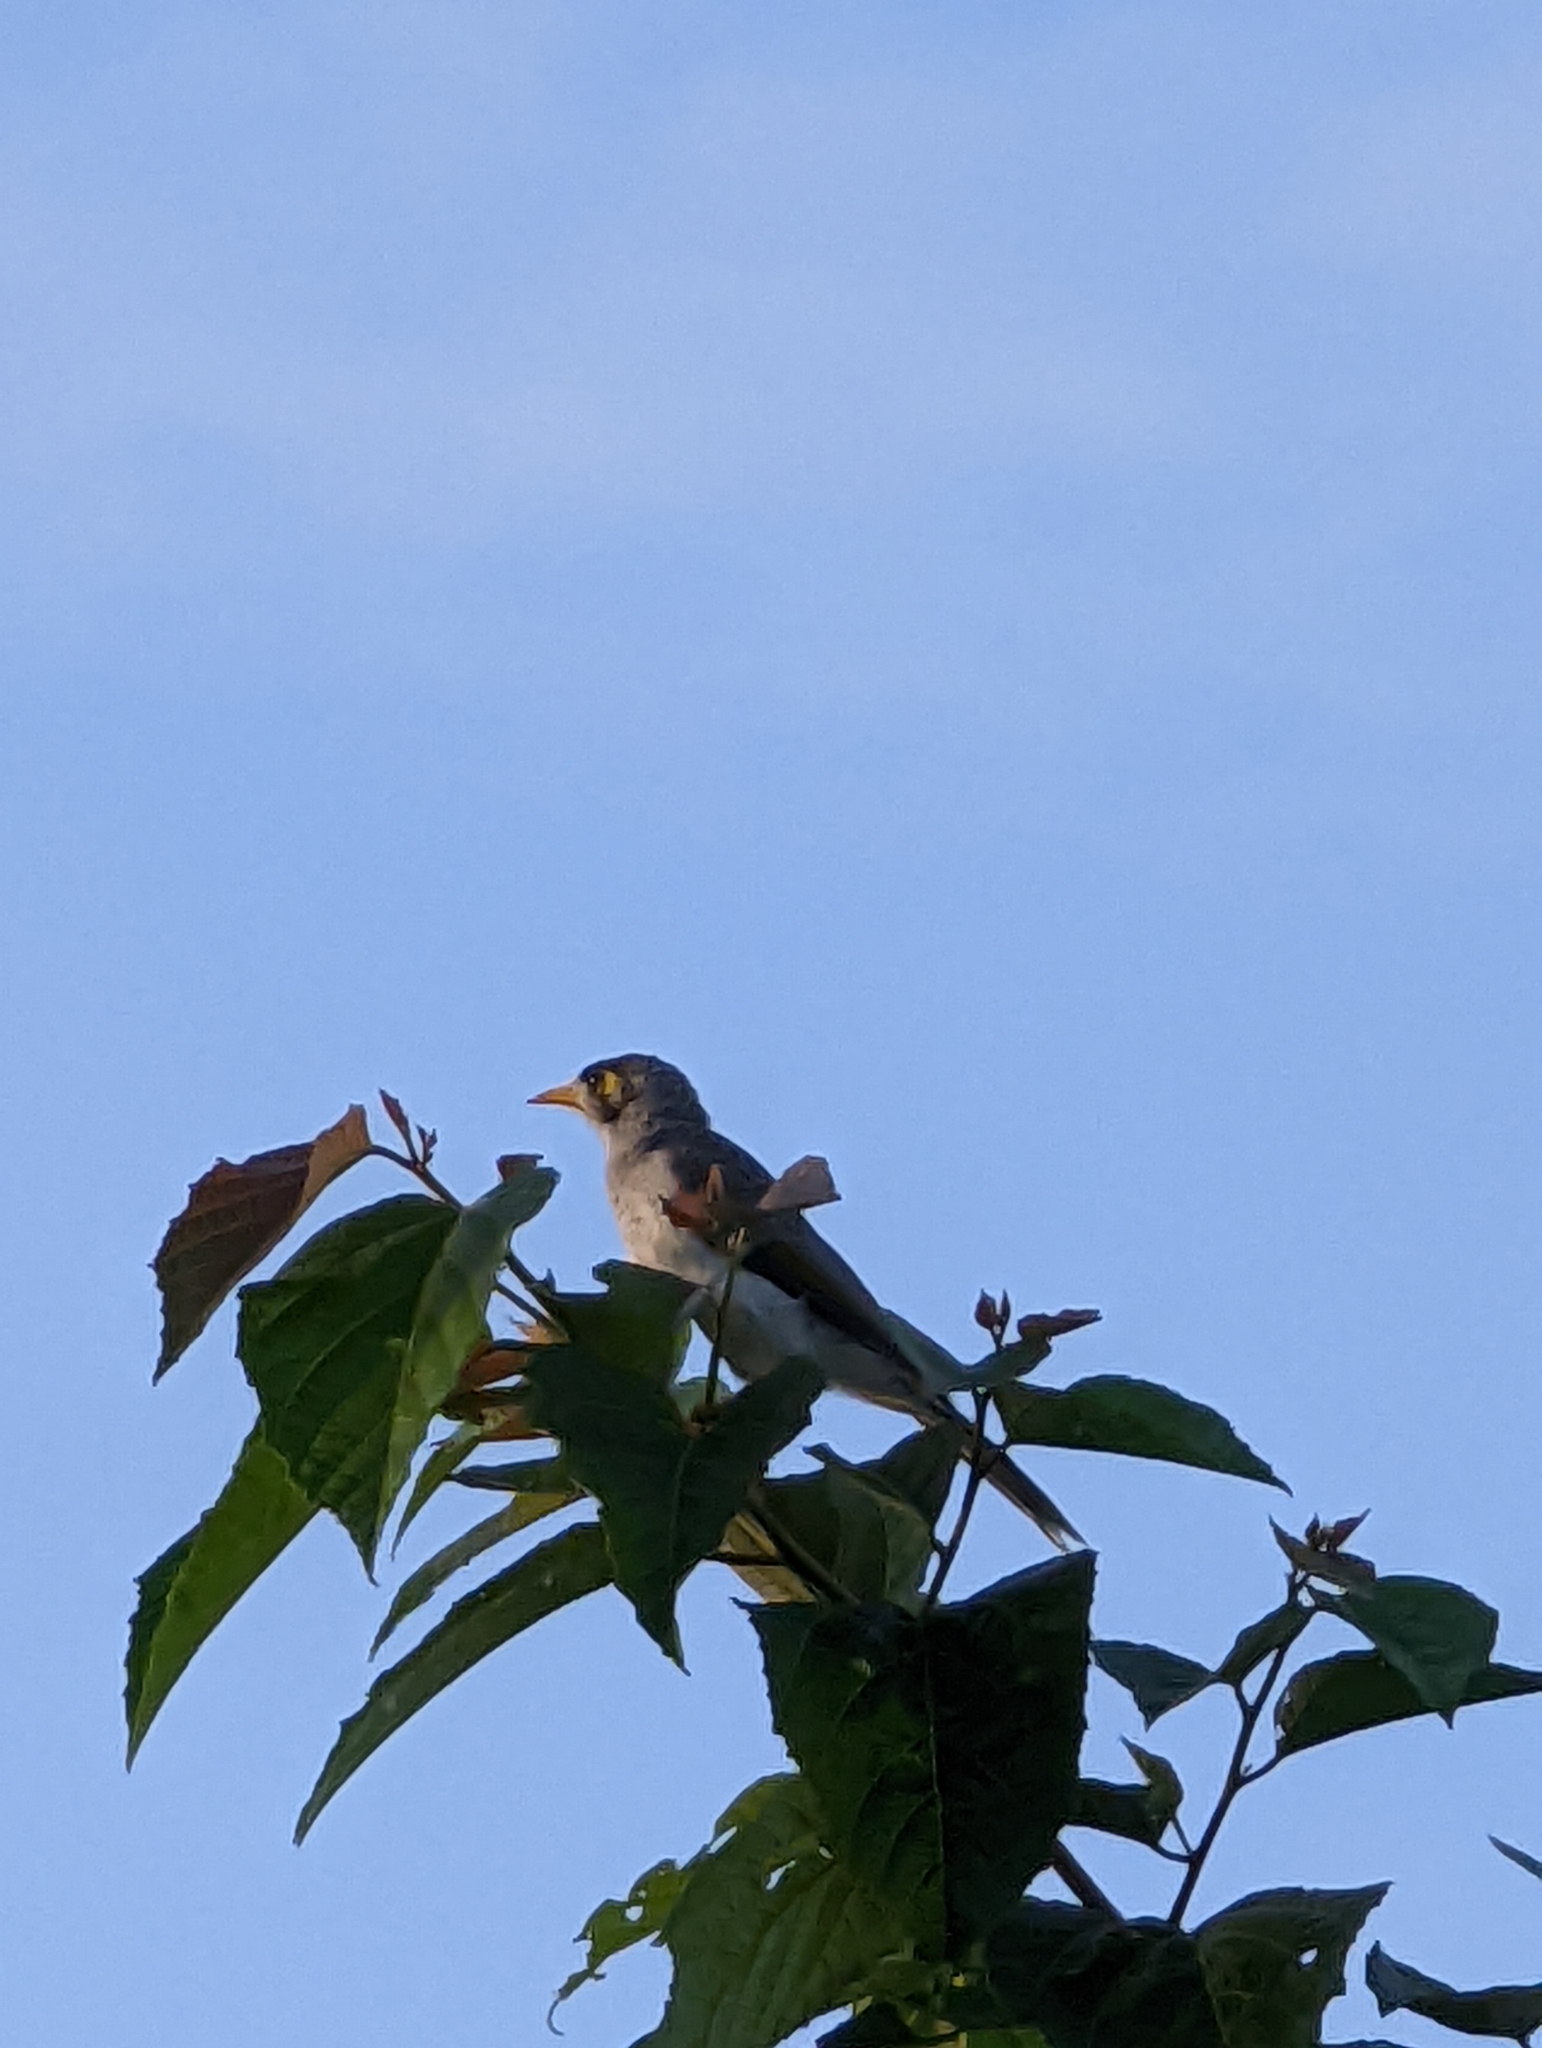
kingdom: Animalia
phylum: Chordata
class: Aves
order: Passeriformes
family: Meliphagidae
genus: Manorina
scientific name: Manorina melanocephala
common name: Noisy miner
